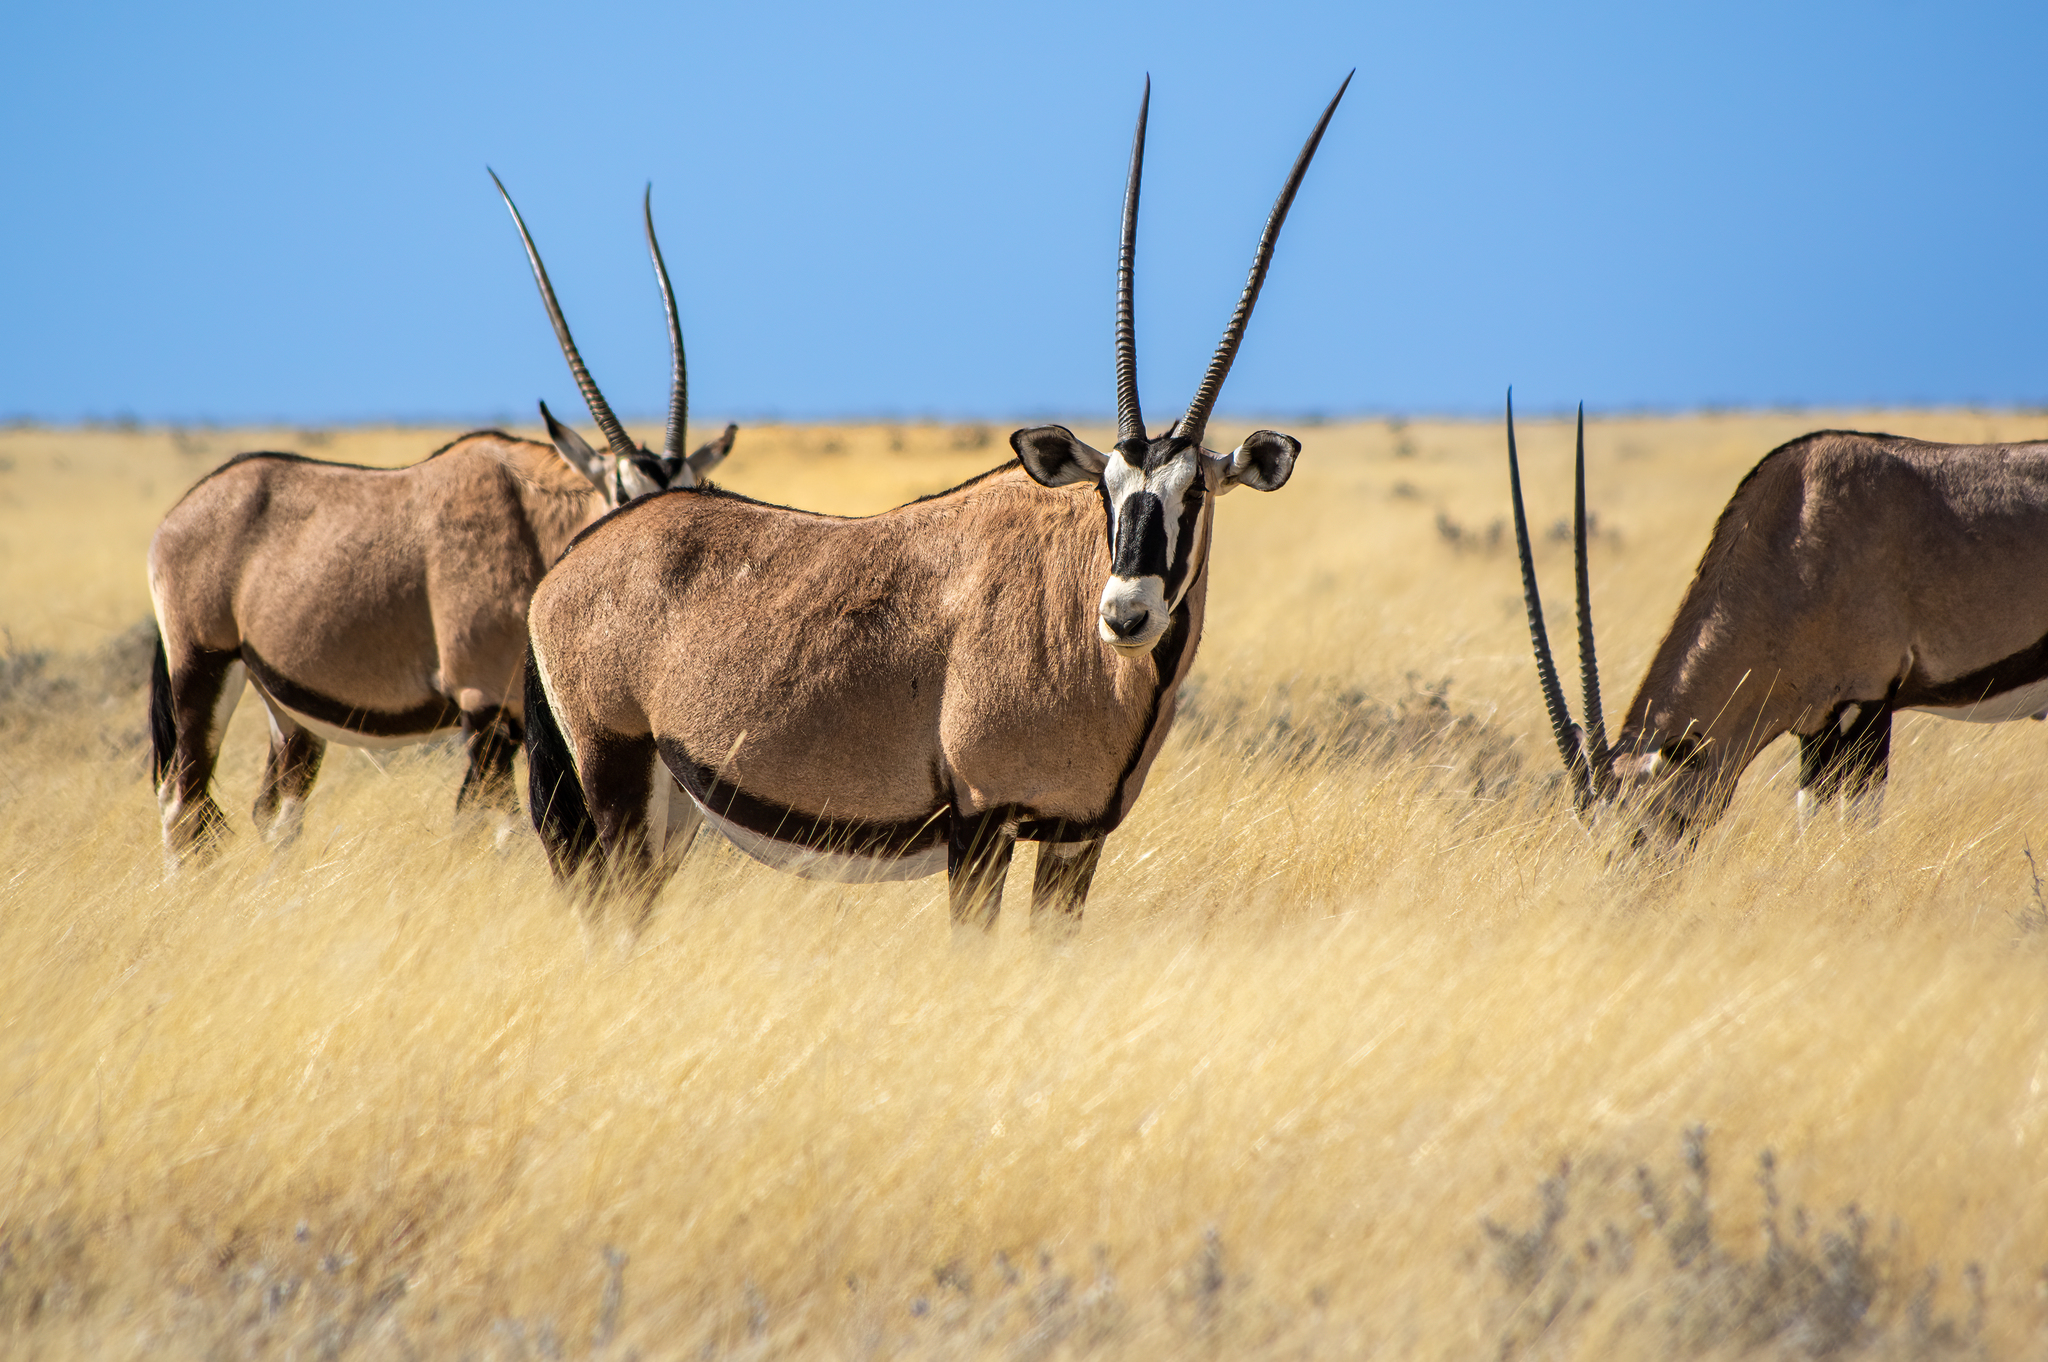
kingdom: Animalia
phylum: Chordata
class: Mammalia
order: Artiodactyla
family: Bovidae
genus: Oryx
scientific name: Oryx gazella
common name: Gemsbok
